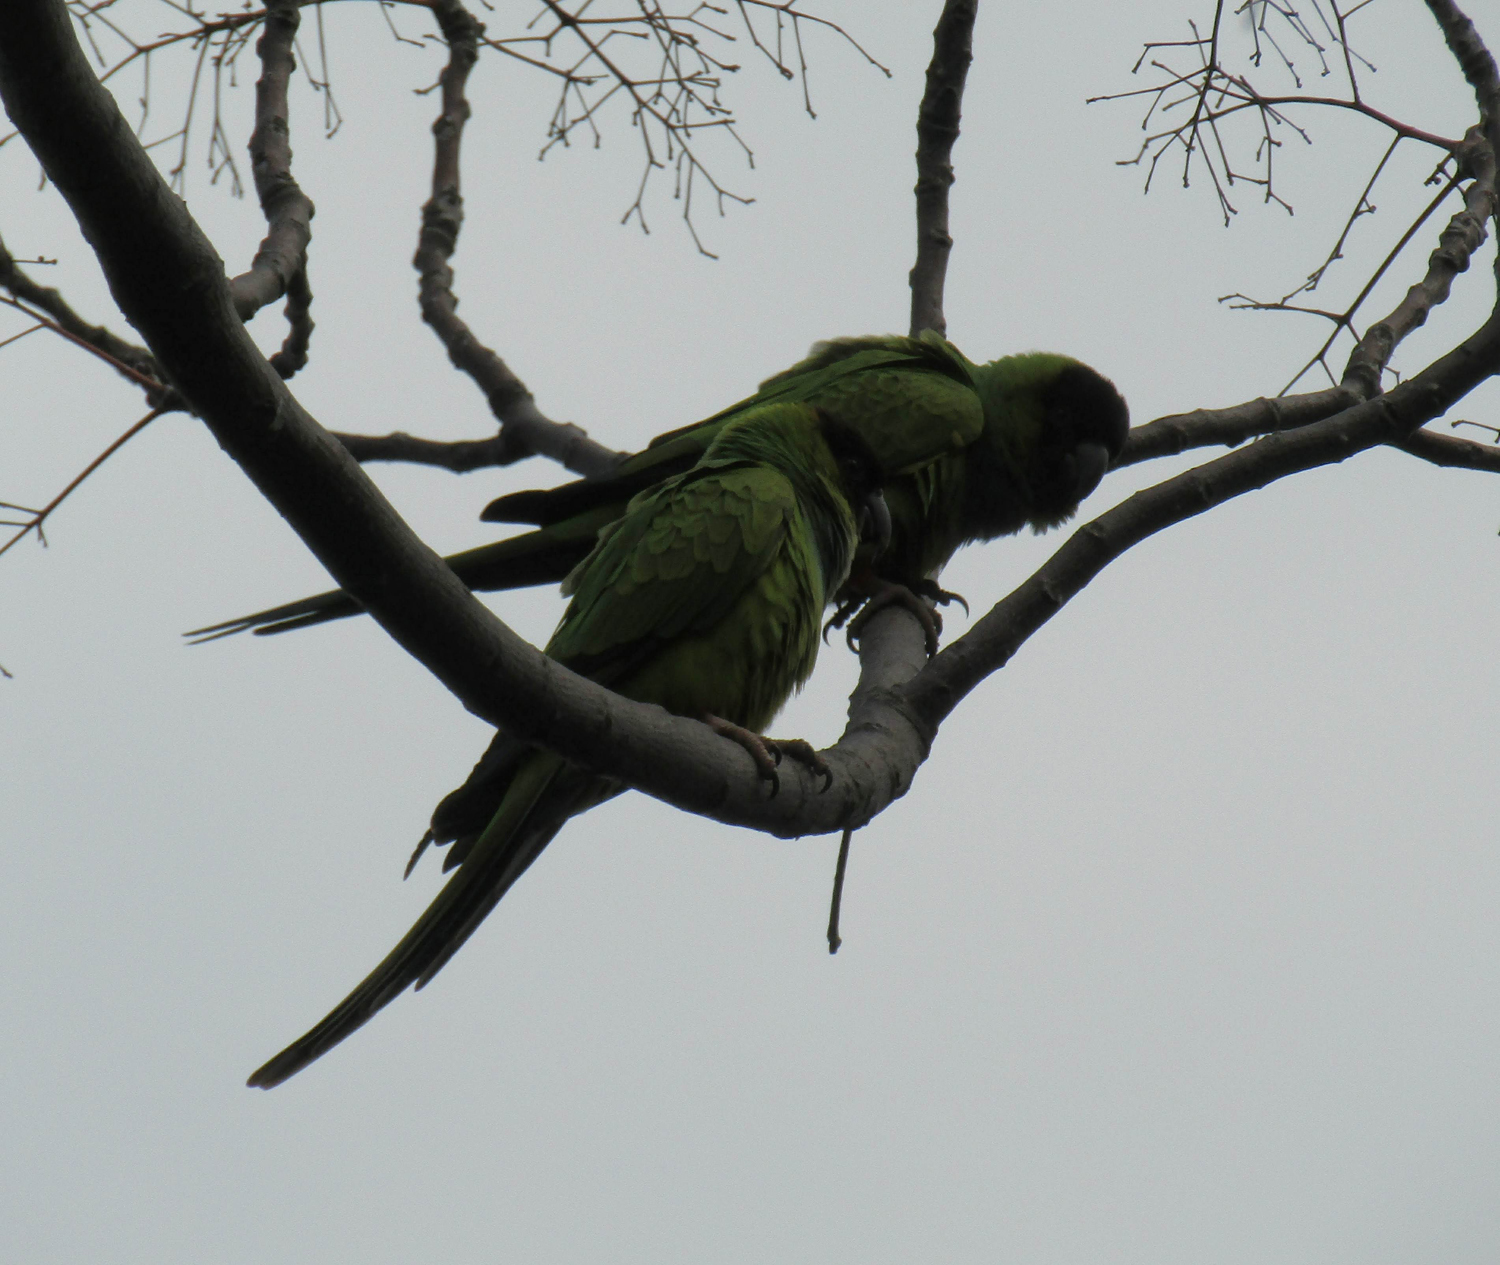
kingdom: Animalia
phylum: Chordata
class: Aves
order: Psittaciformes
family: Psittacidae
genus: Nandayus
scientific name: Nandayus nenday
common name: Nanday parakeet
